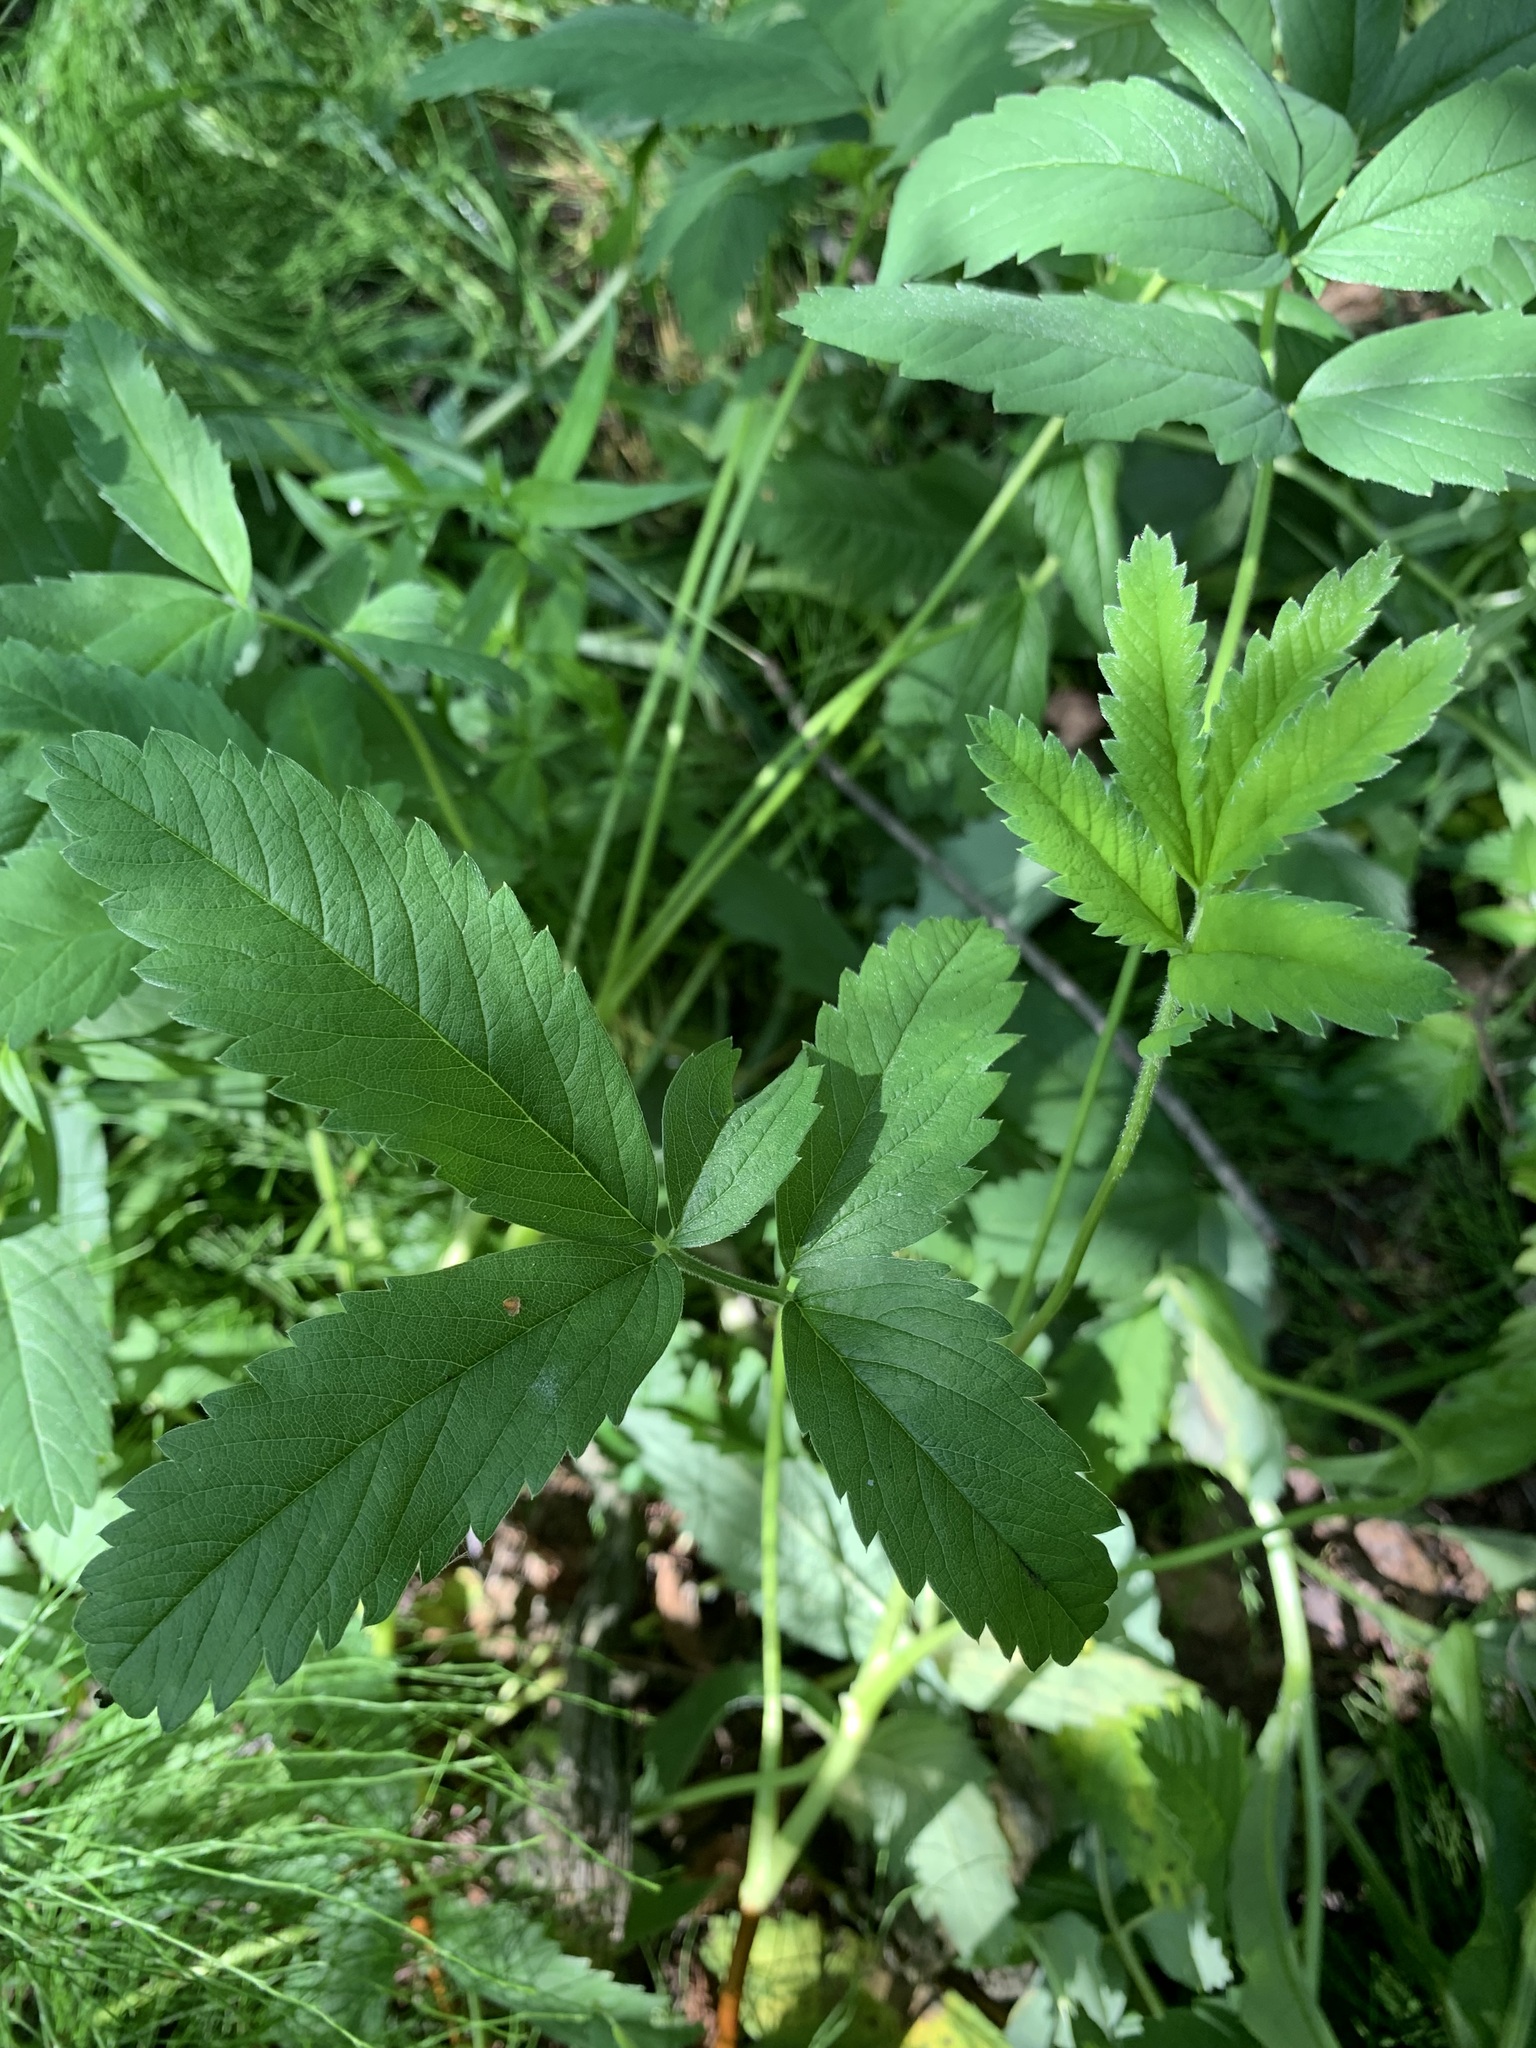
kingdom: Plantae
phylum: Tracheophyta
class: Magnoliopsida
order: Rosales
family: Rosaceae
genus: Comarum
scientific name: Comarum palustre
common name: Marsh cinquefoil
